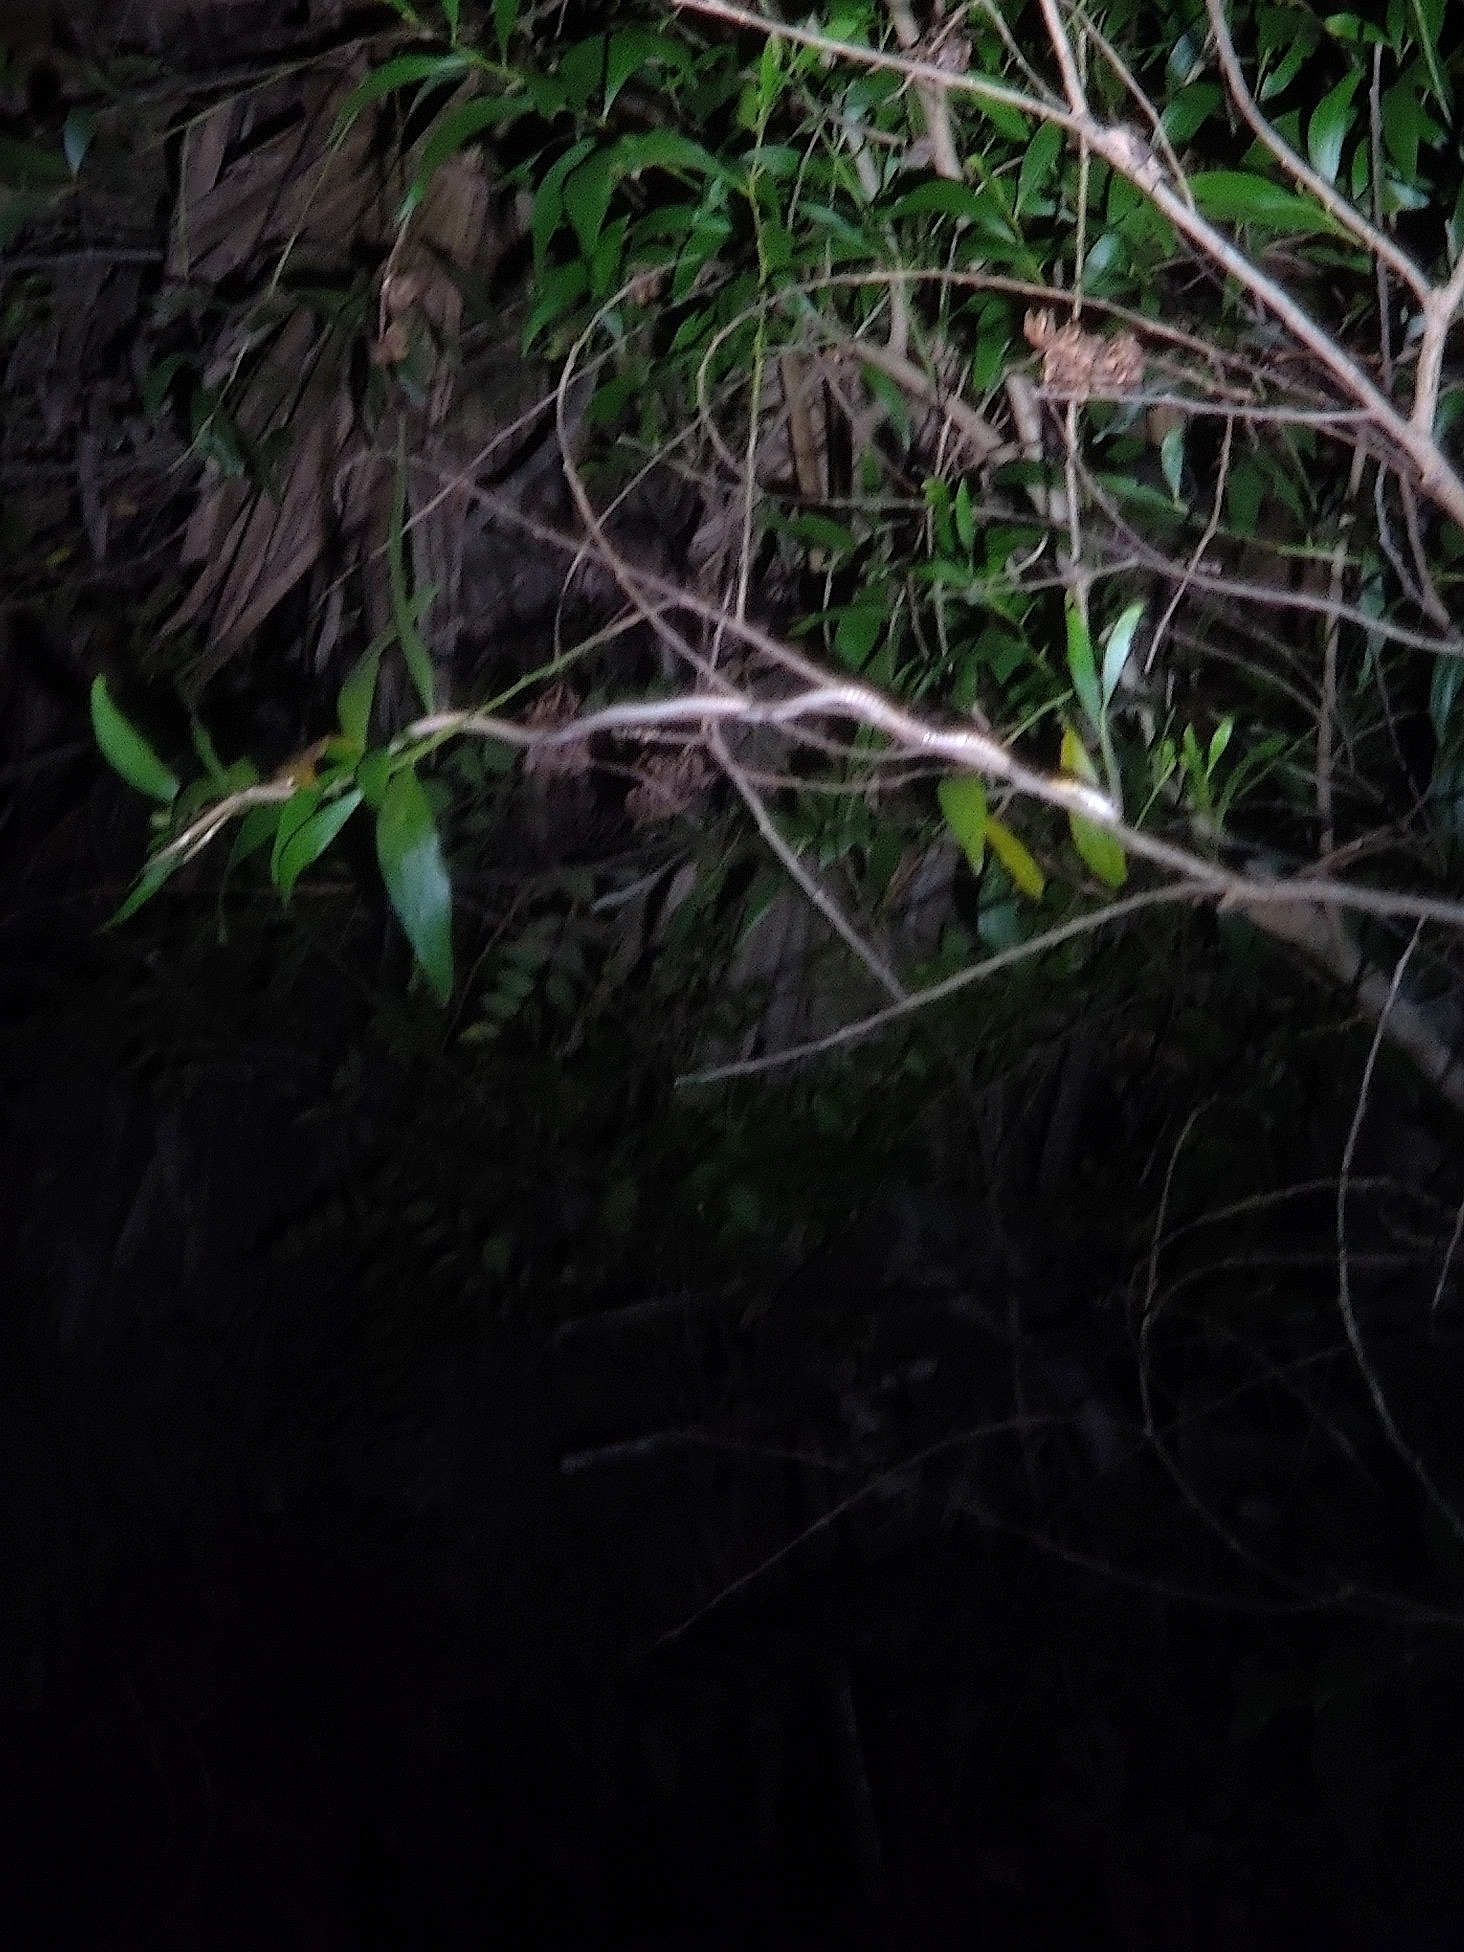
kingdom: Animalia
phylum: Chordata
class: Squamata
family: Colubridae
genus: Dendrelaphis
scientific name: Dendrelaphis tristis
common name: Daudin's bronzeback
